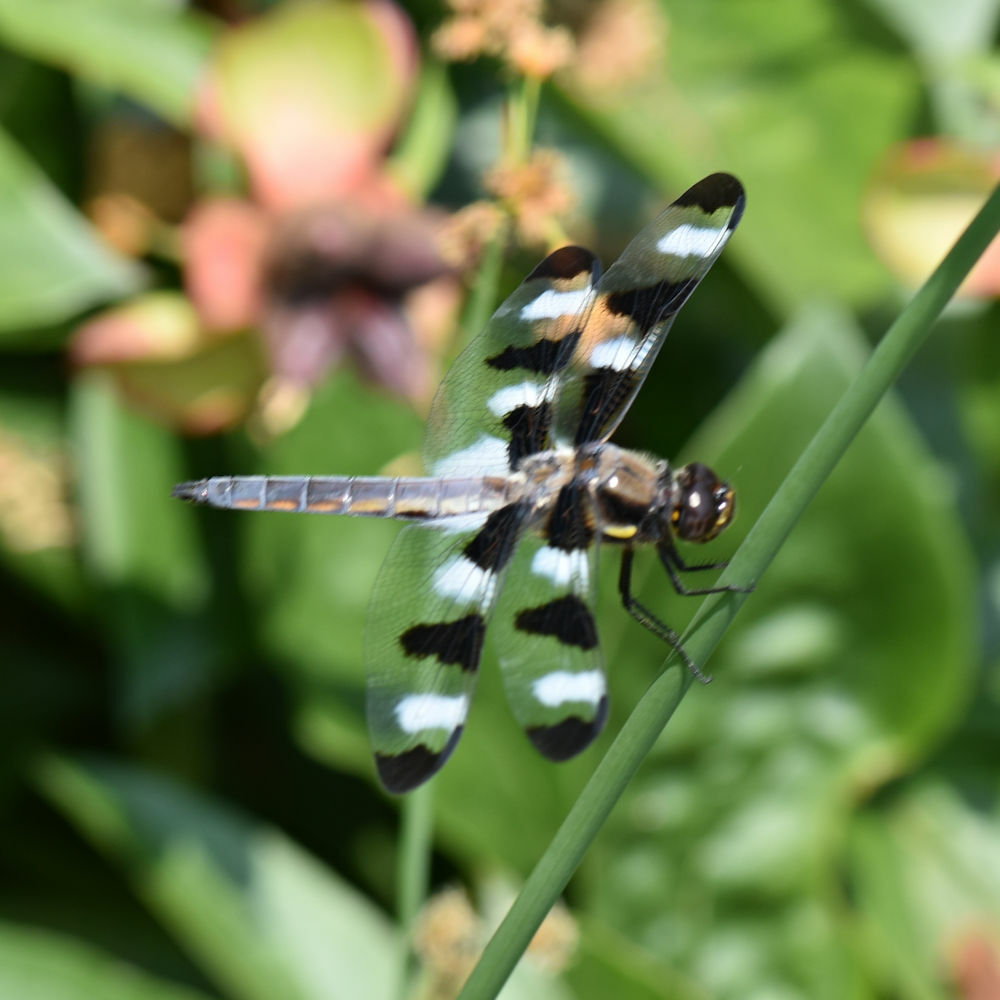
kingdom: Animalia
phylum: Arthropoda
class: Insecta
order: Odonata
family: Libellulidae
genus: Libellula
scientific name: Libellula pulchella
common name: Twelve-spotted skimmer
